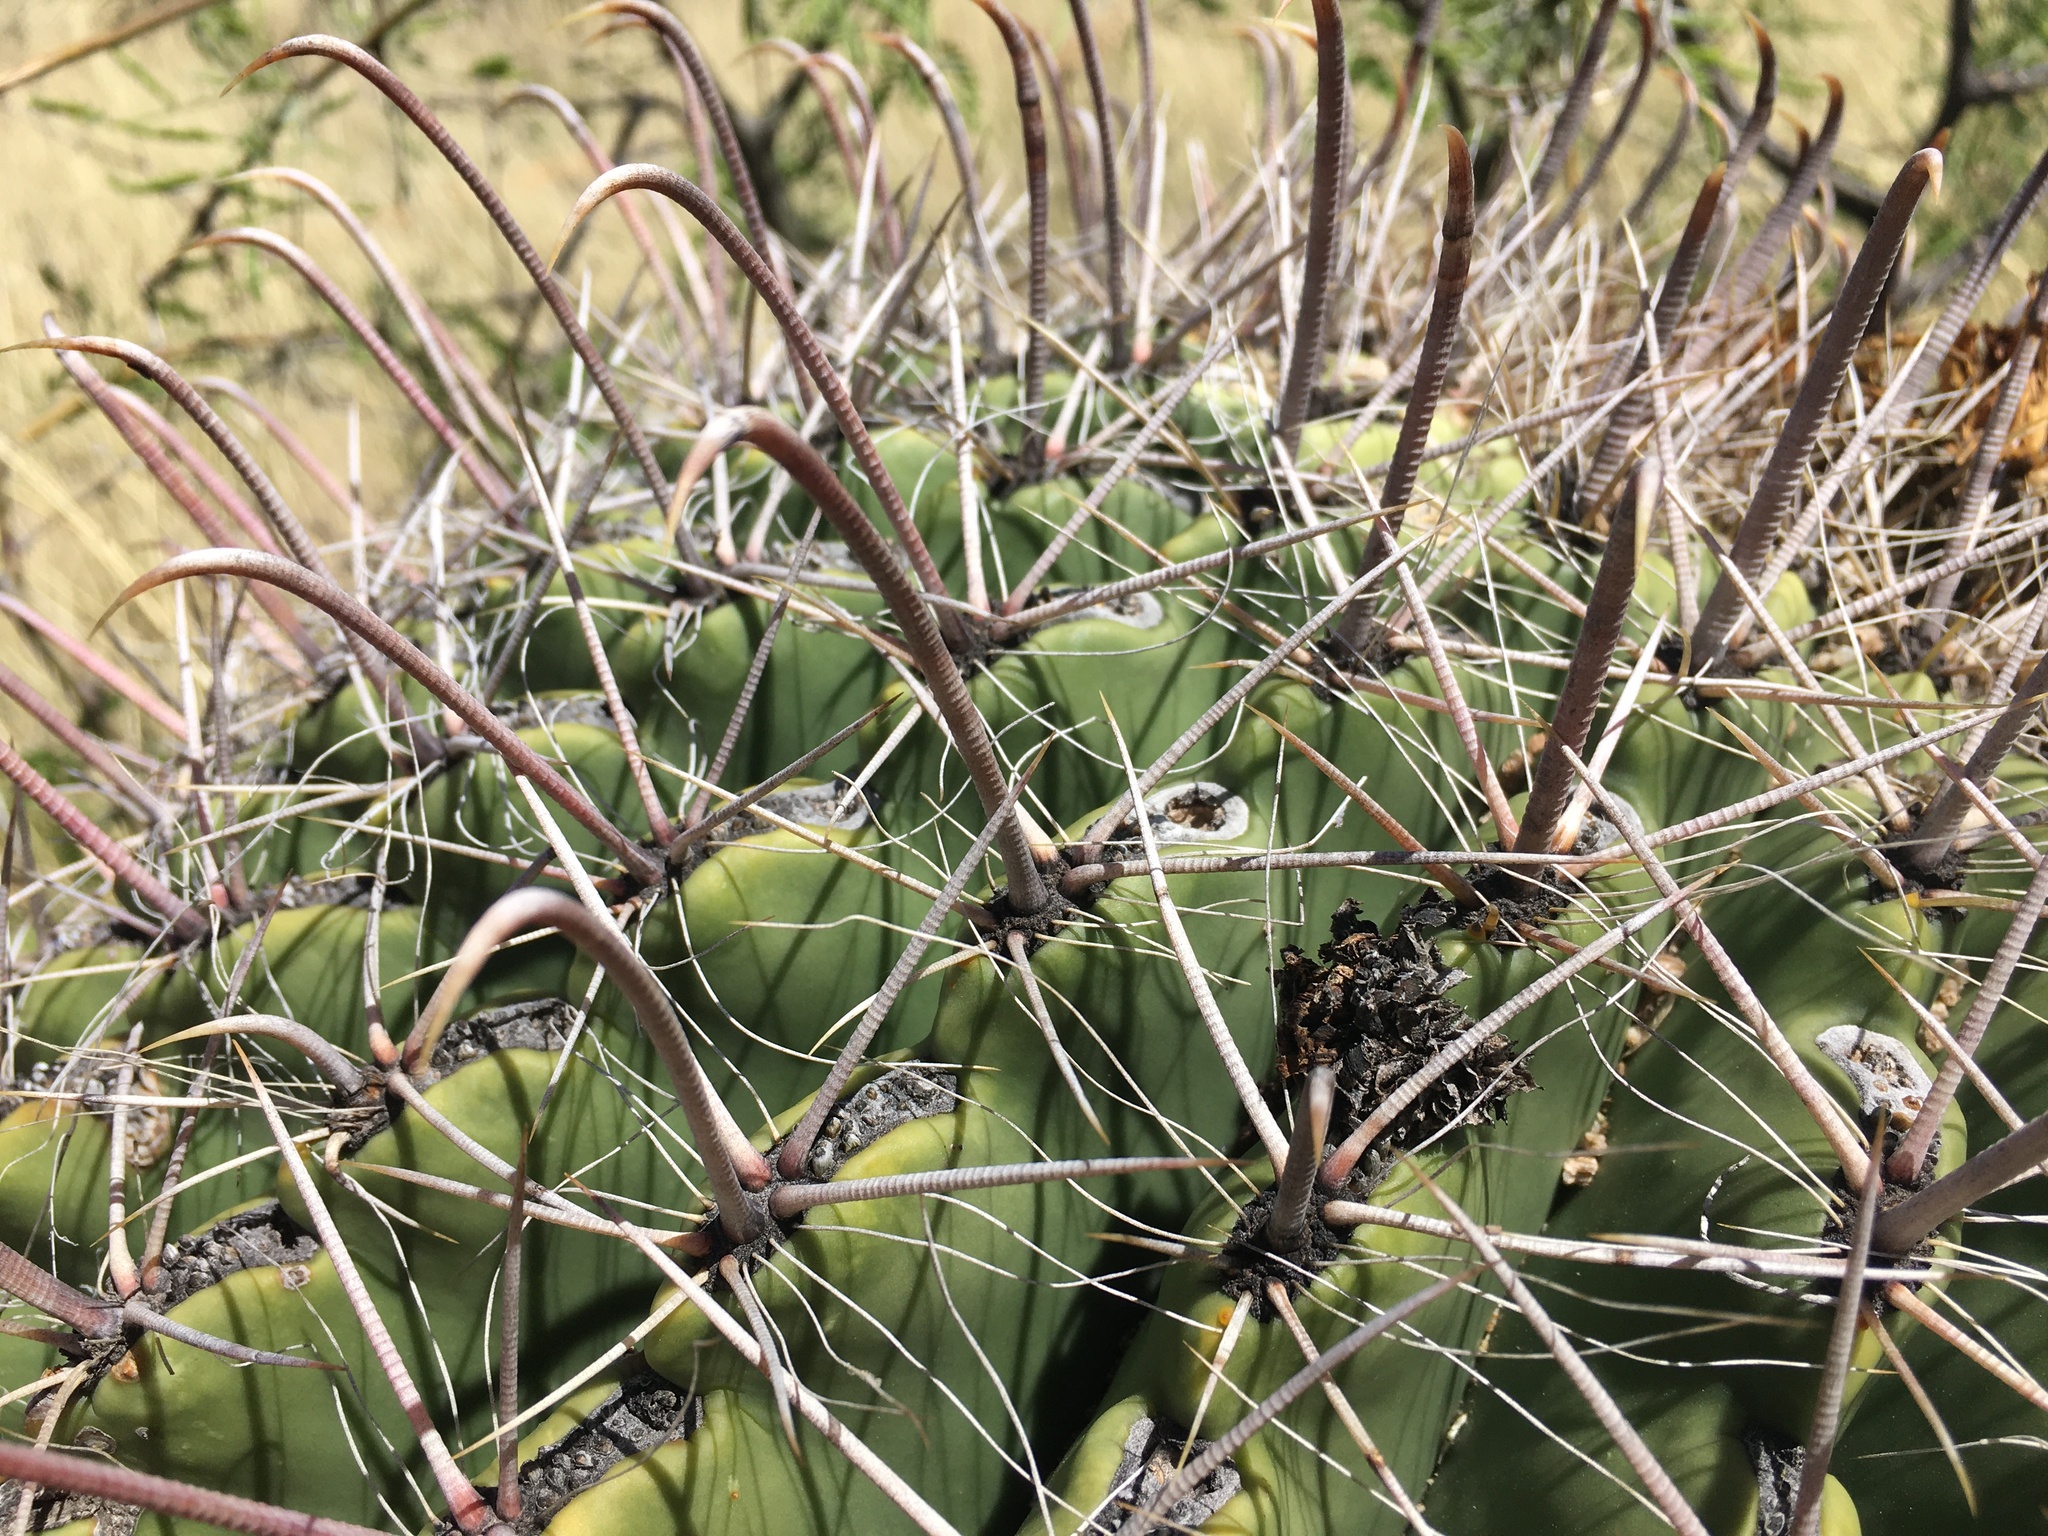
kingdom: Plantae
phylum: Tracheophyta
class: Magnoliopsida
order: Caryophyllales
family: Cactaceae
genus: Ferocactus
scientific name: Ferocactus wislizeni
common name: Candy barrel cactus
